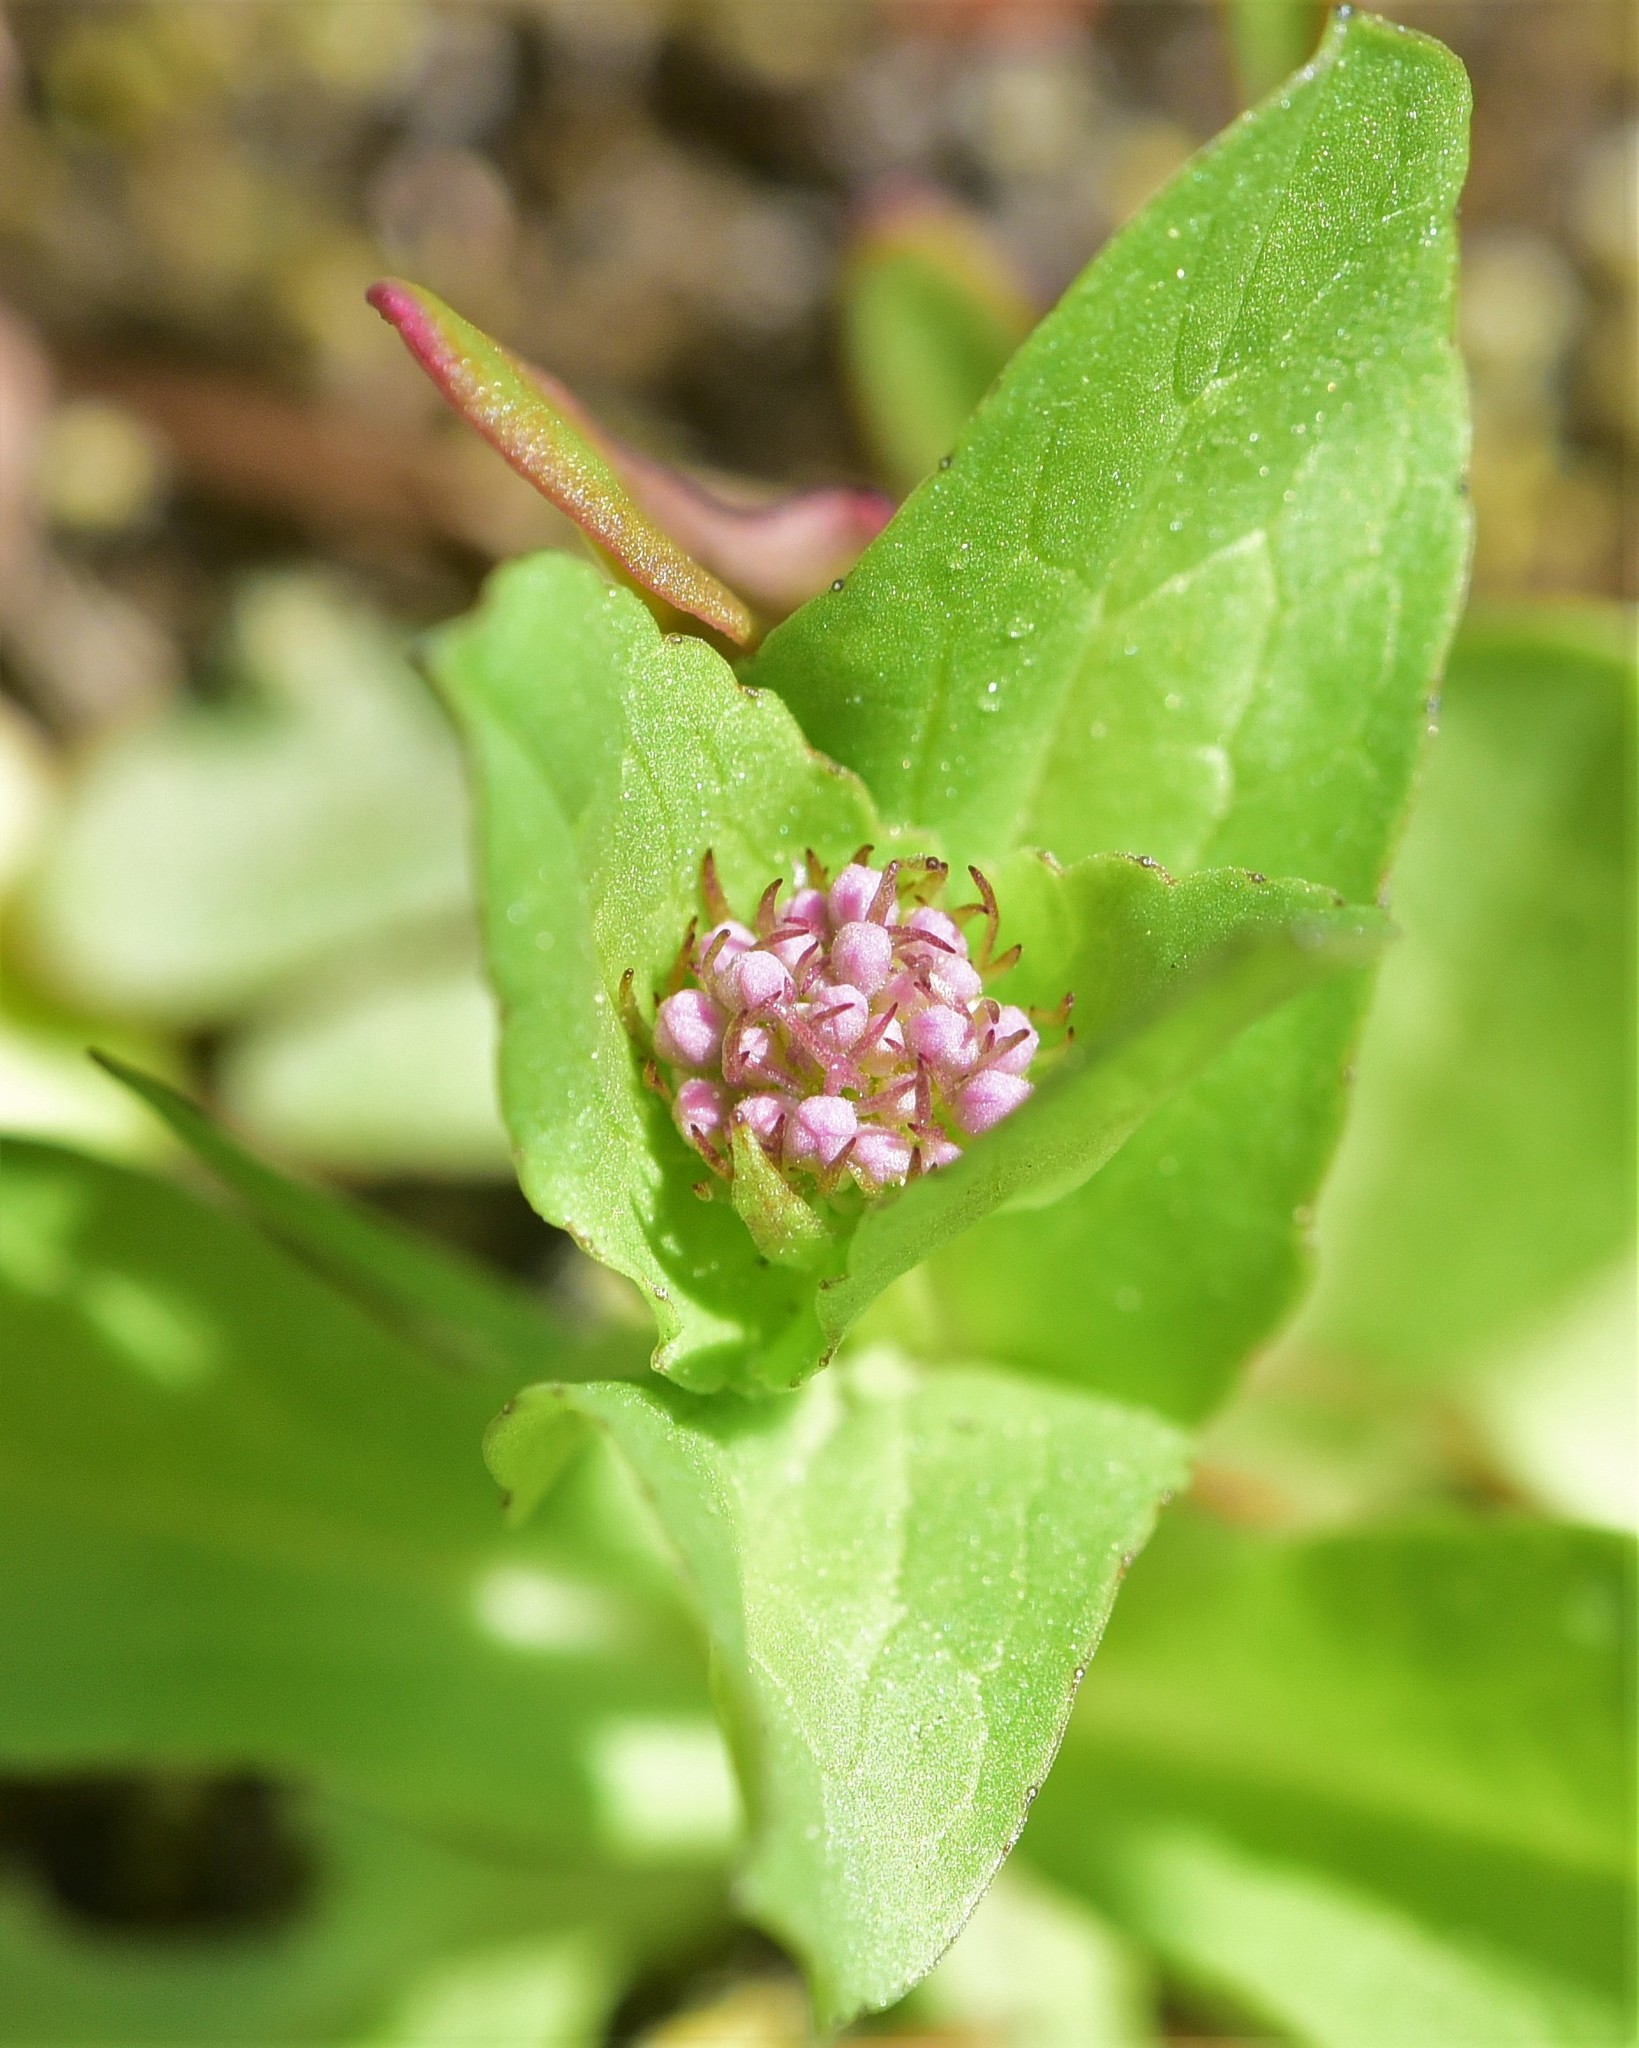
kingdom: Plantae
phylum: Tracheophyta
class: Magnoliopsida
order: Dipsacales
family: Caprifoliaceae
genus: Plectritis
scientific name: Plectritis congesta
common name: Pink plectritis
